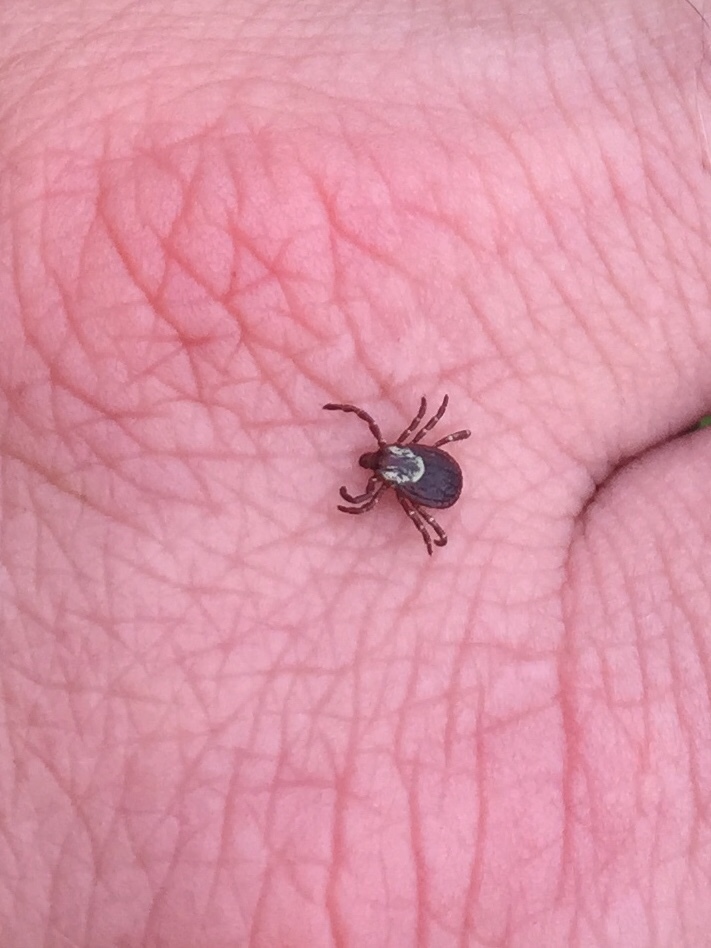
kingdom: Animalia
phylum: Arthropoda
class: Arachnida
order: Ixodida
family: Ixodidae
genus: Dermacentor
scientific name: Dermacentor variabilis
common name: American dog tick
